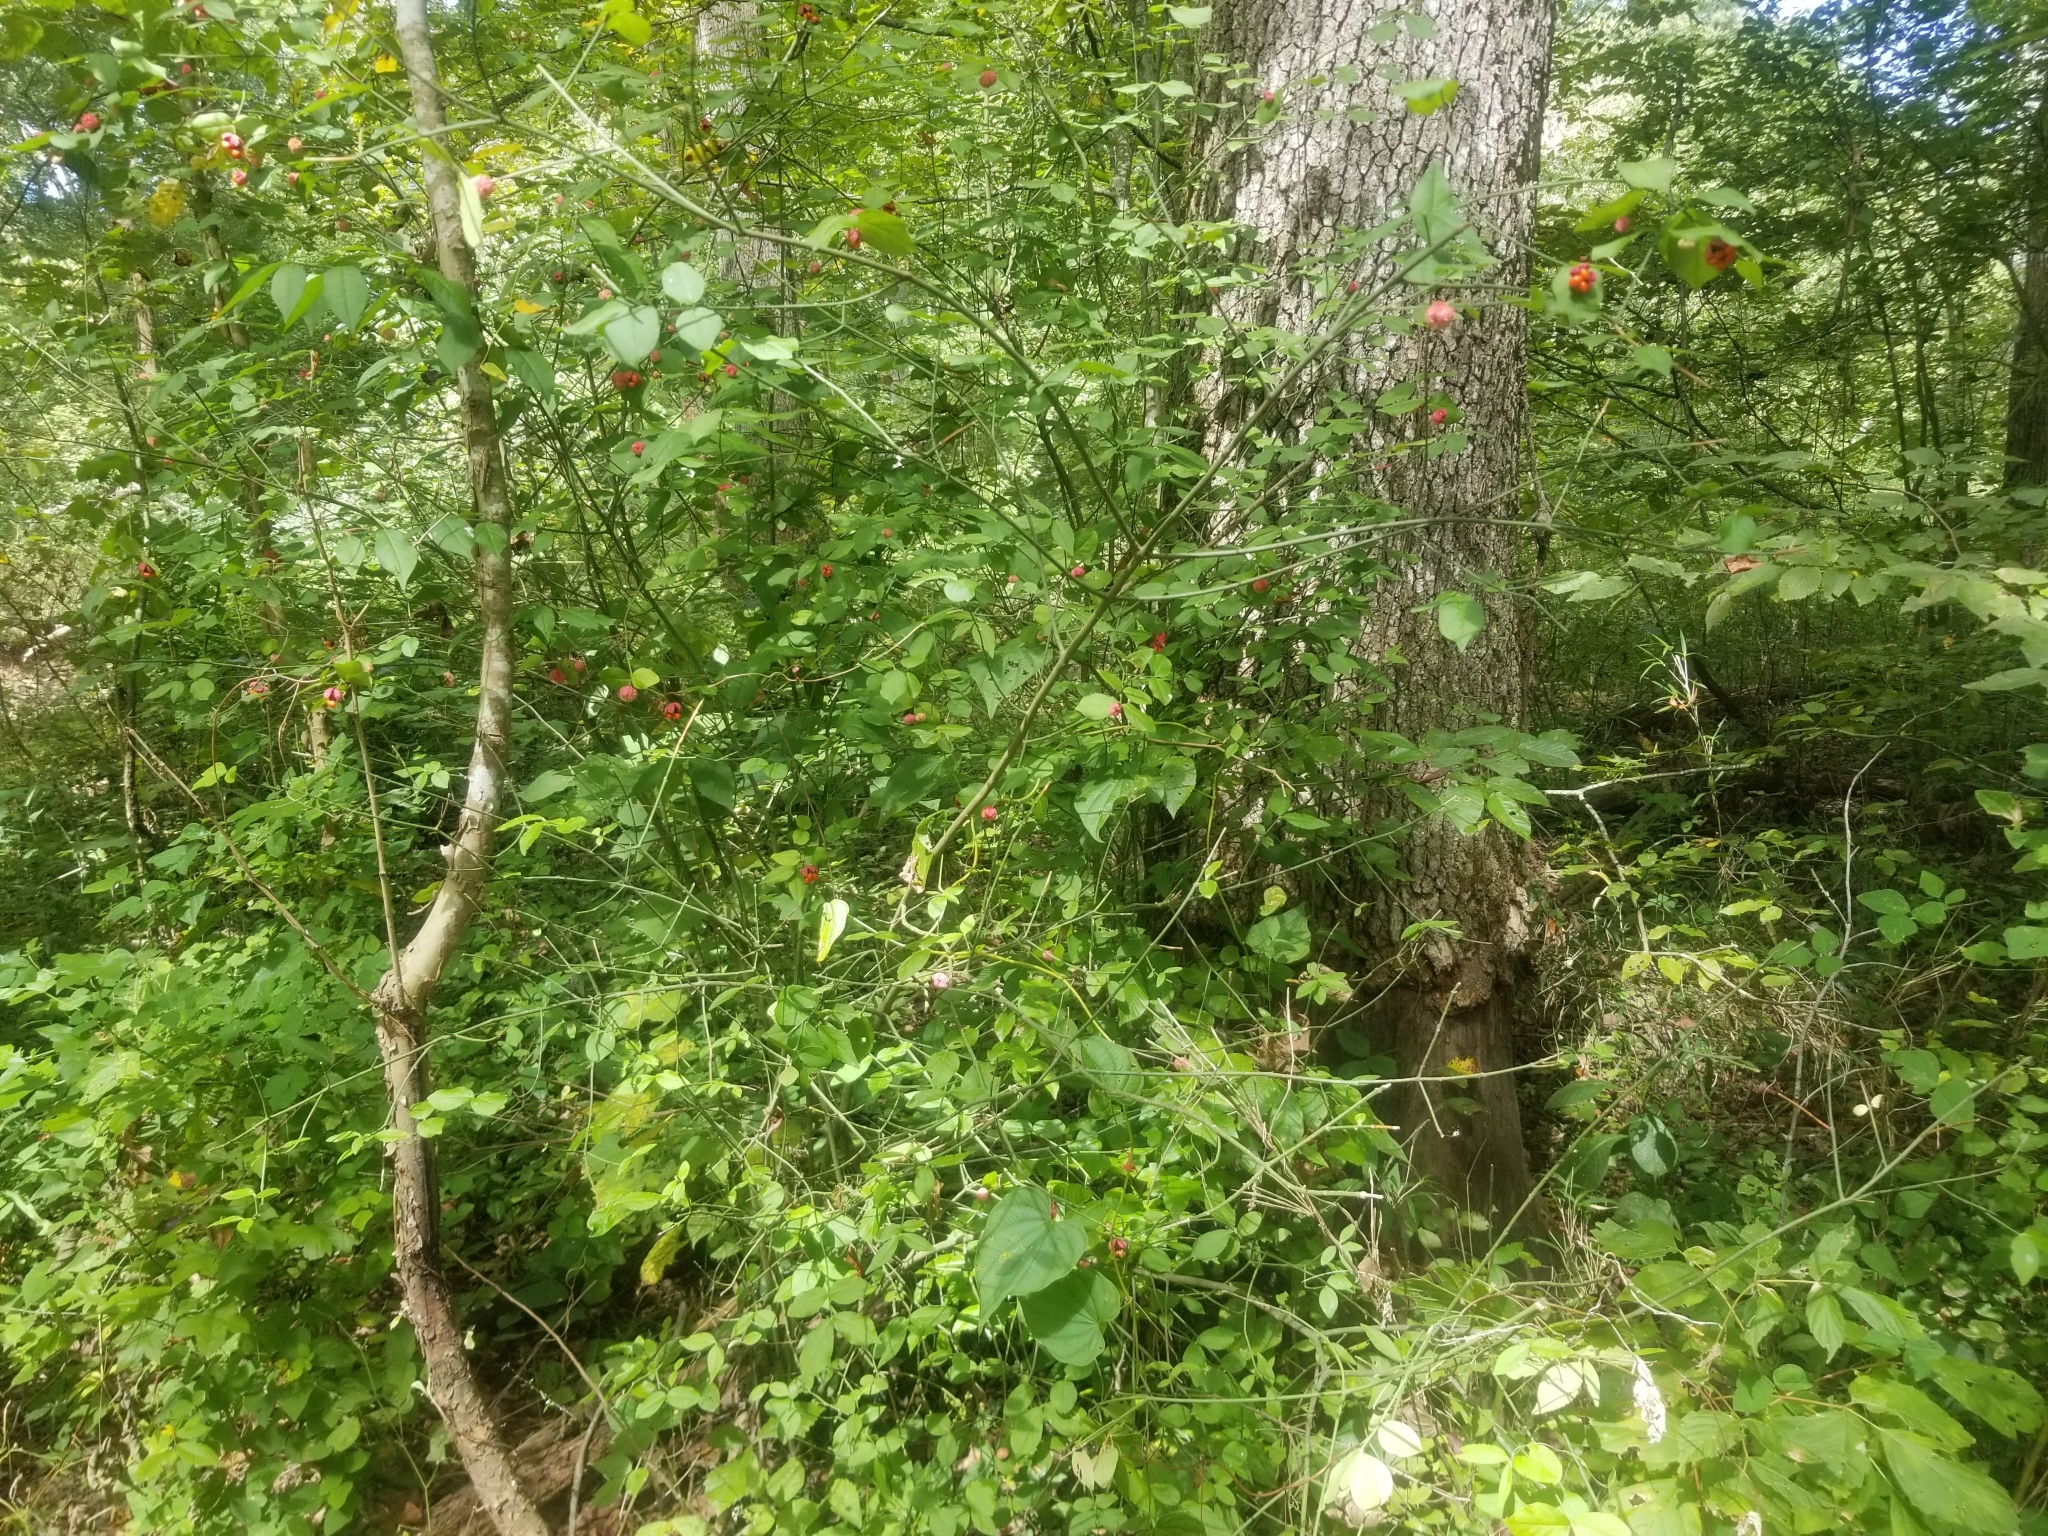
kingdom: Plantae
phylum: Tracheophyta
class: Magnoliopsida
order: Celastrales
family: Celastraceae
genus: Euonymus
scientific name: Euonymus americanus
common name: Bursting-heart
